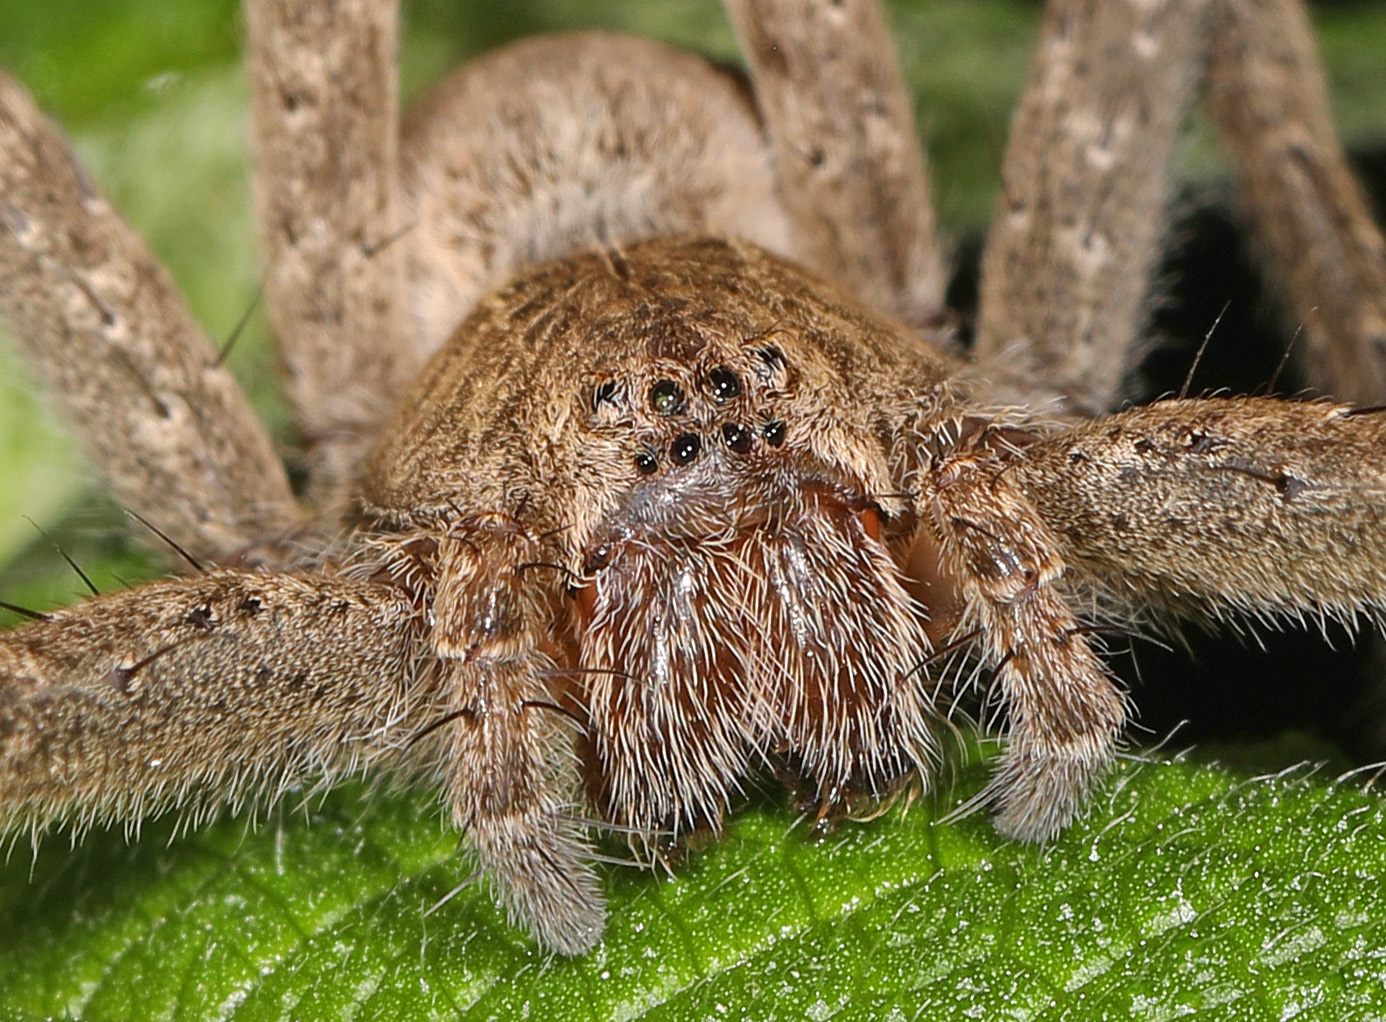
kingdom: Animalia
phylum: Arthropoda
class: Arachnida
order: Araneae
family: Pisauridae
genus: Pisaurina
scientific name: Pisaurina mira
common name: American nursery web spider
